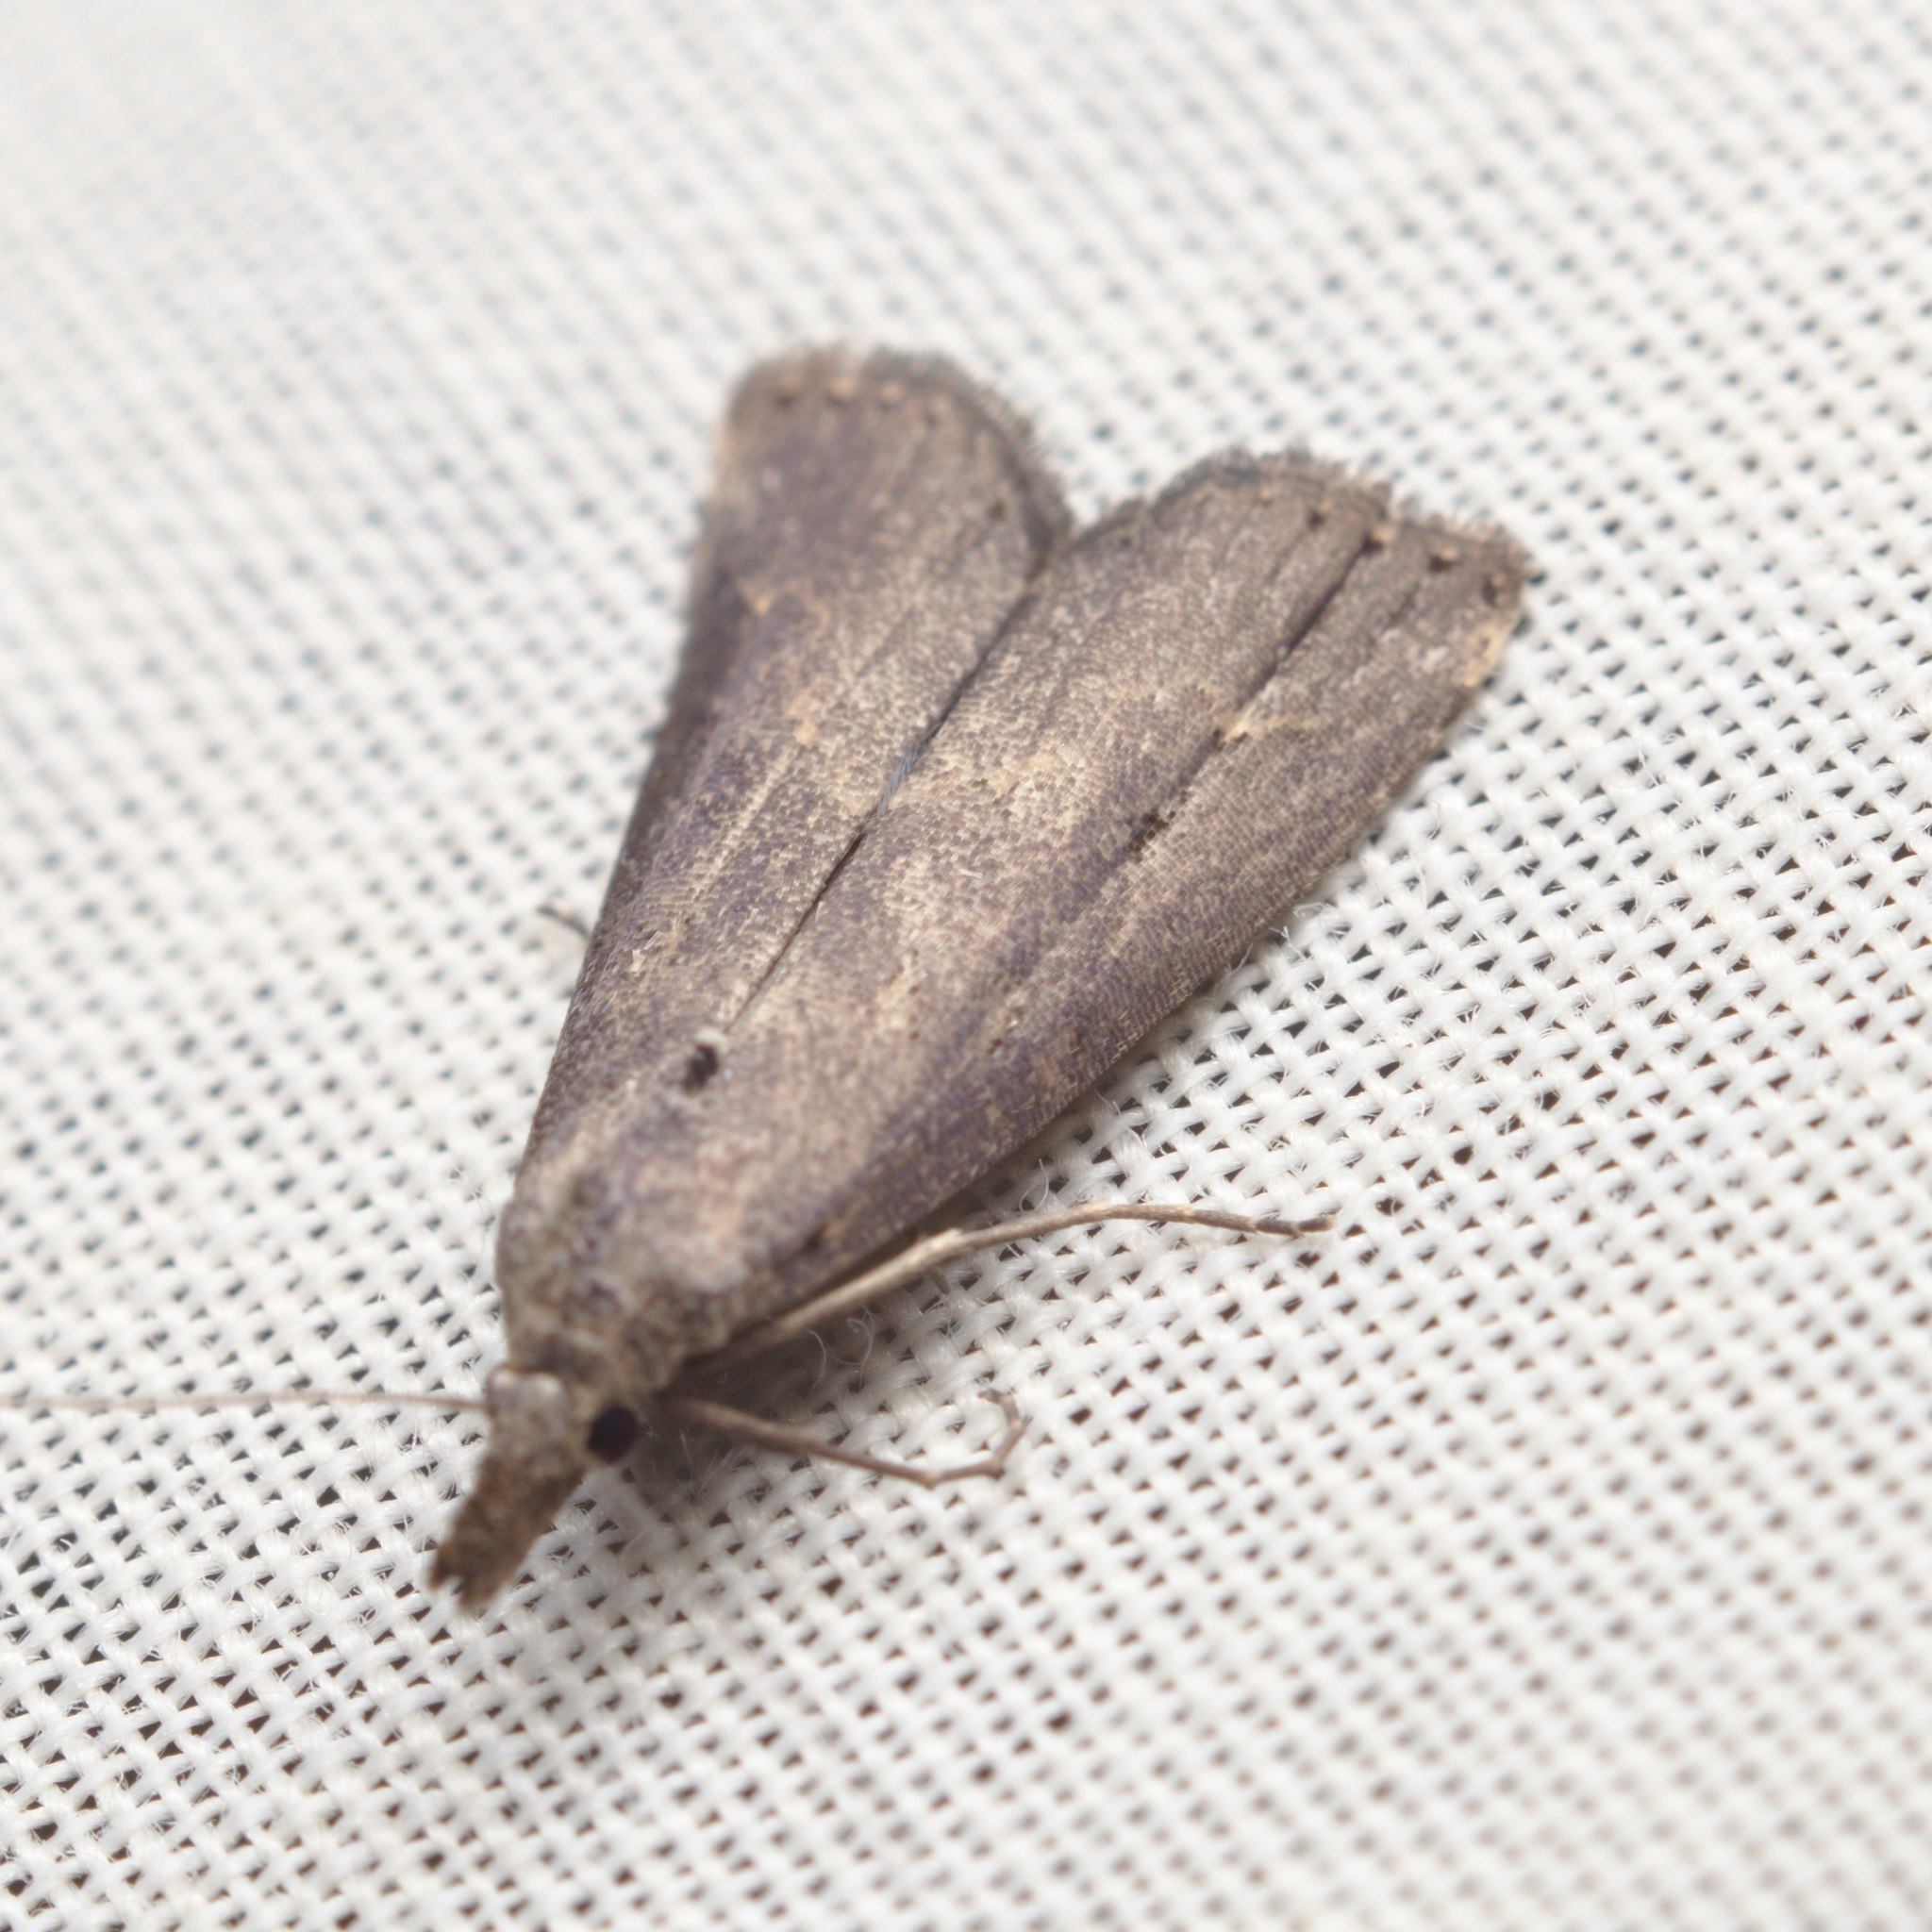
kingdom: Animalia
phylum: Arthropoda
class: Insecta
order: Lepidoptera
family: Erebidae
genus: Schrankia
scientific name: Schrankia costaestrigalis
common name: Pinion-streaked snout
